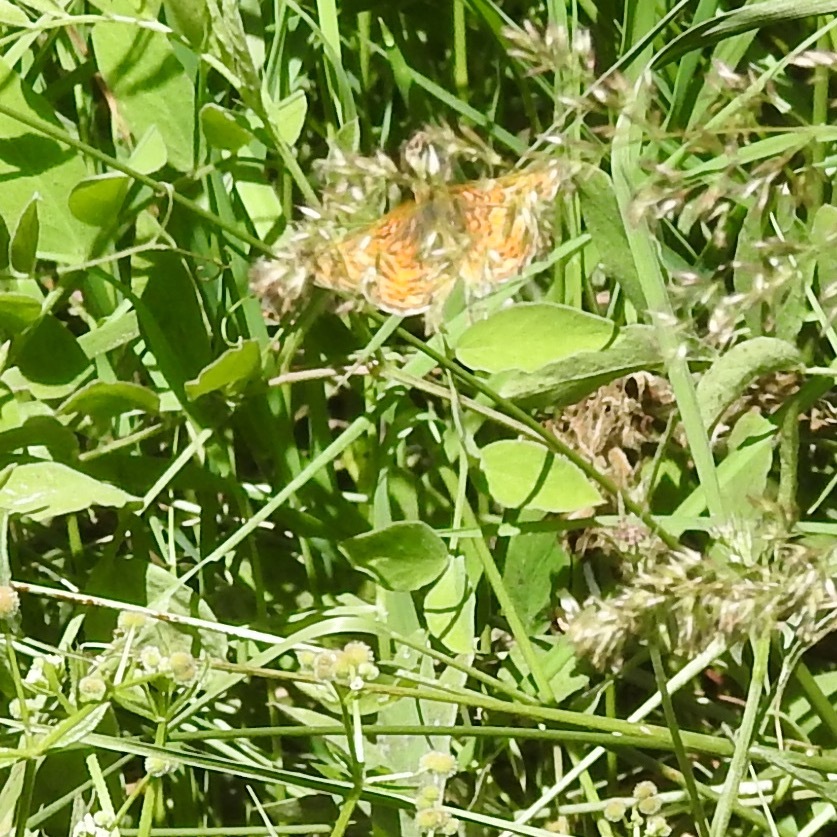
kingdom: Animalia
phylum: Arthropoda
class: Insecta
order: Lepidoptera
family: Nymphalidae
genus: Eresia
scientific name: Eresia aveyrona
